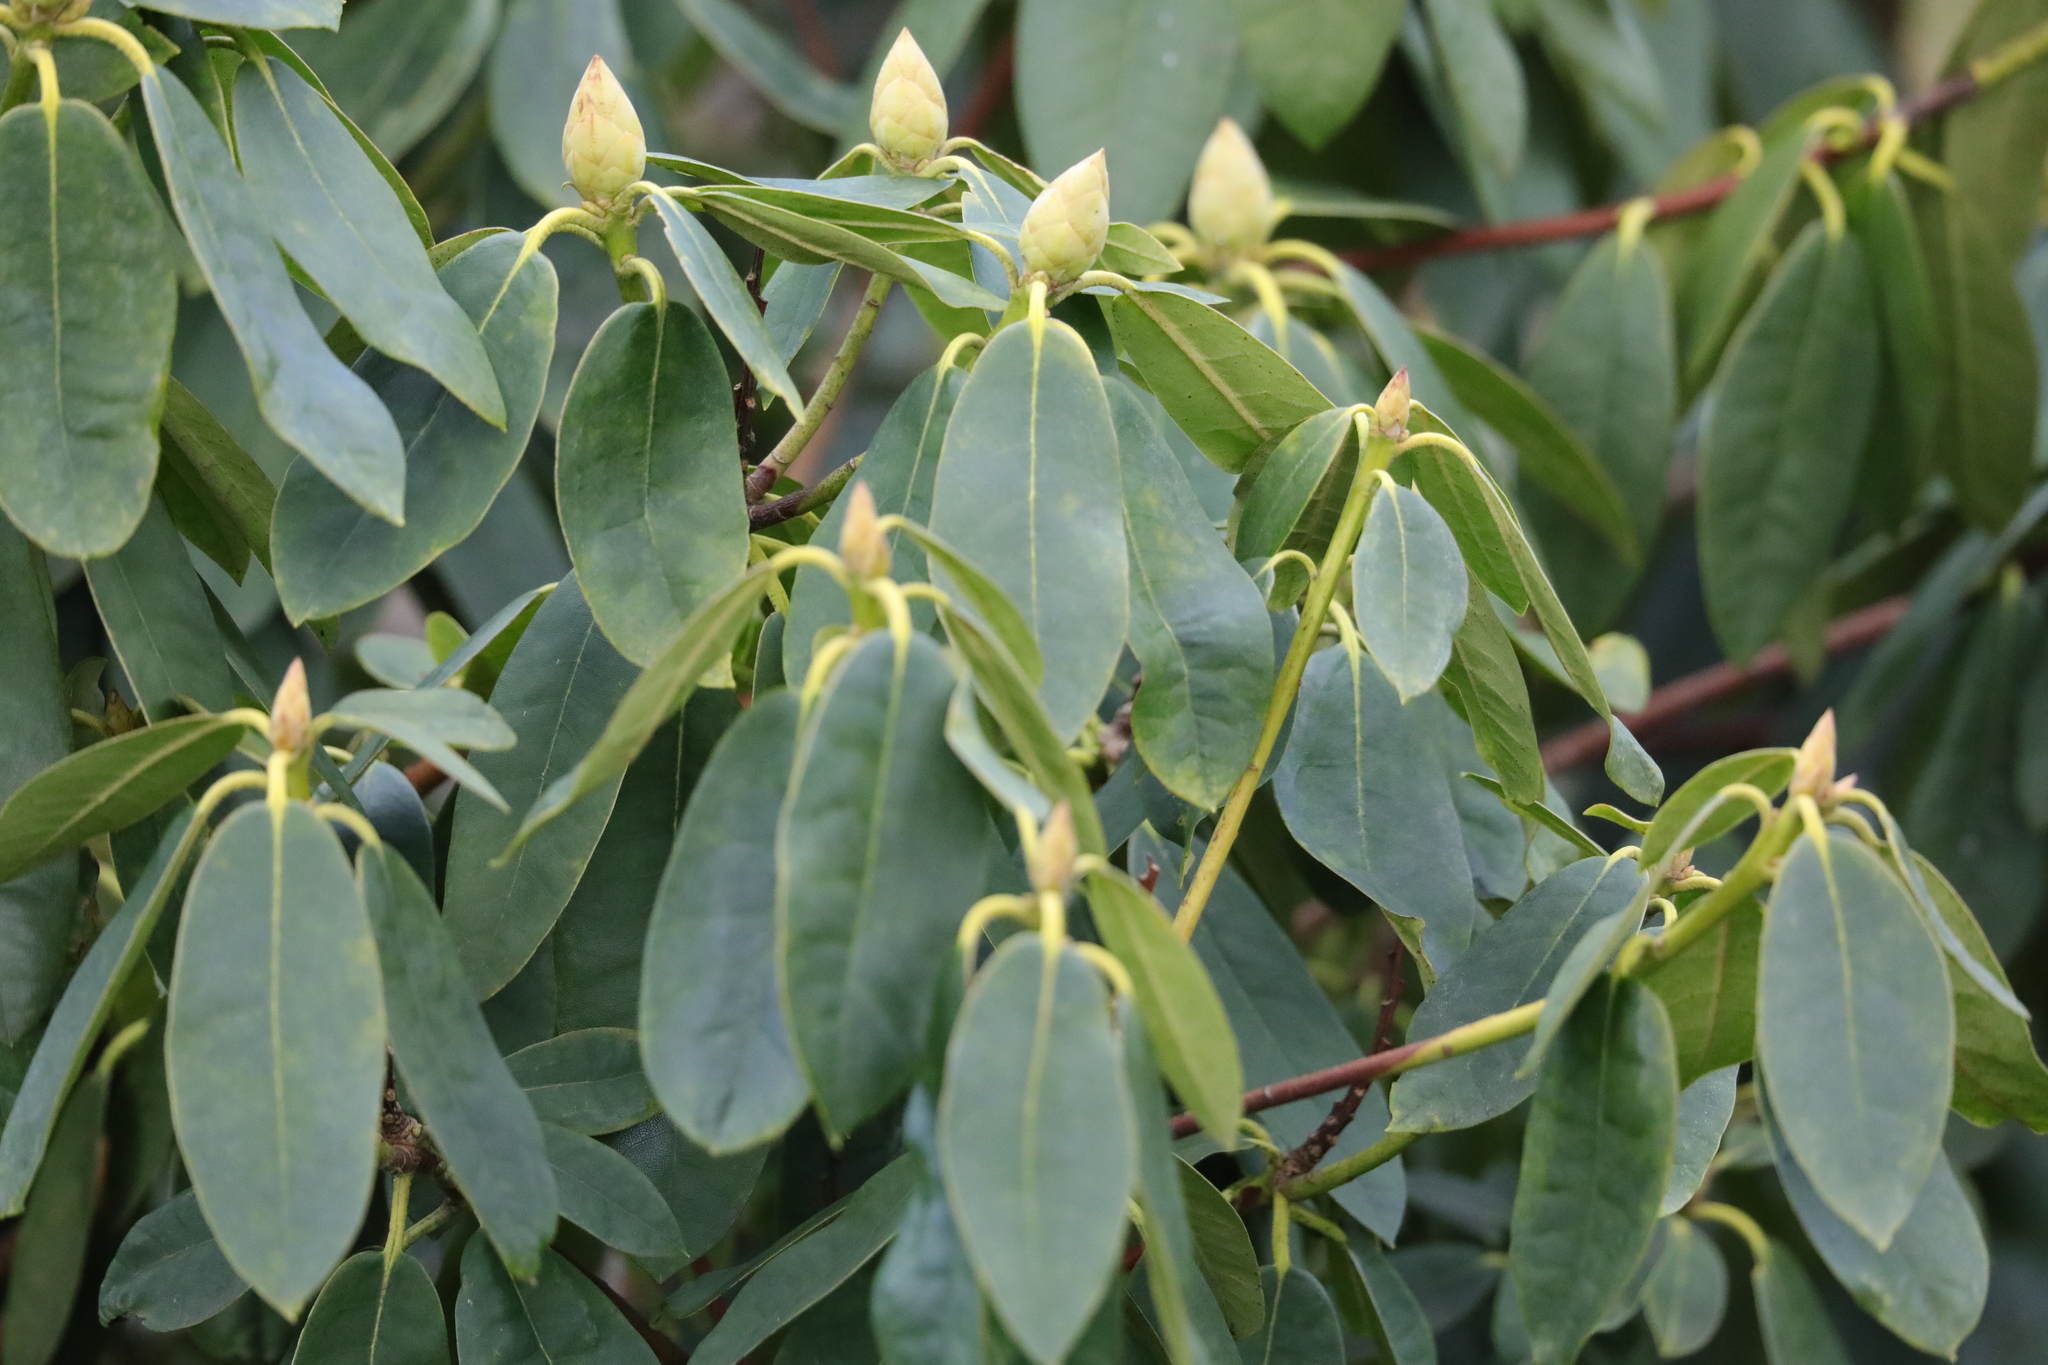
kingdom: Plantae
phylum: Tracheophyta
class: Magnoliopsida
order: Ericales
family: Ericaceae
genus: Rhododendron
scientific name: Rhododendron
